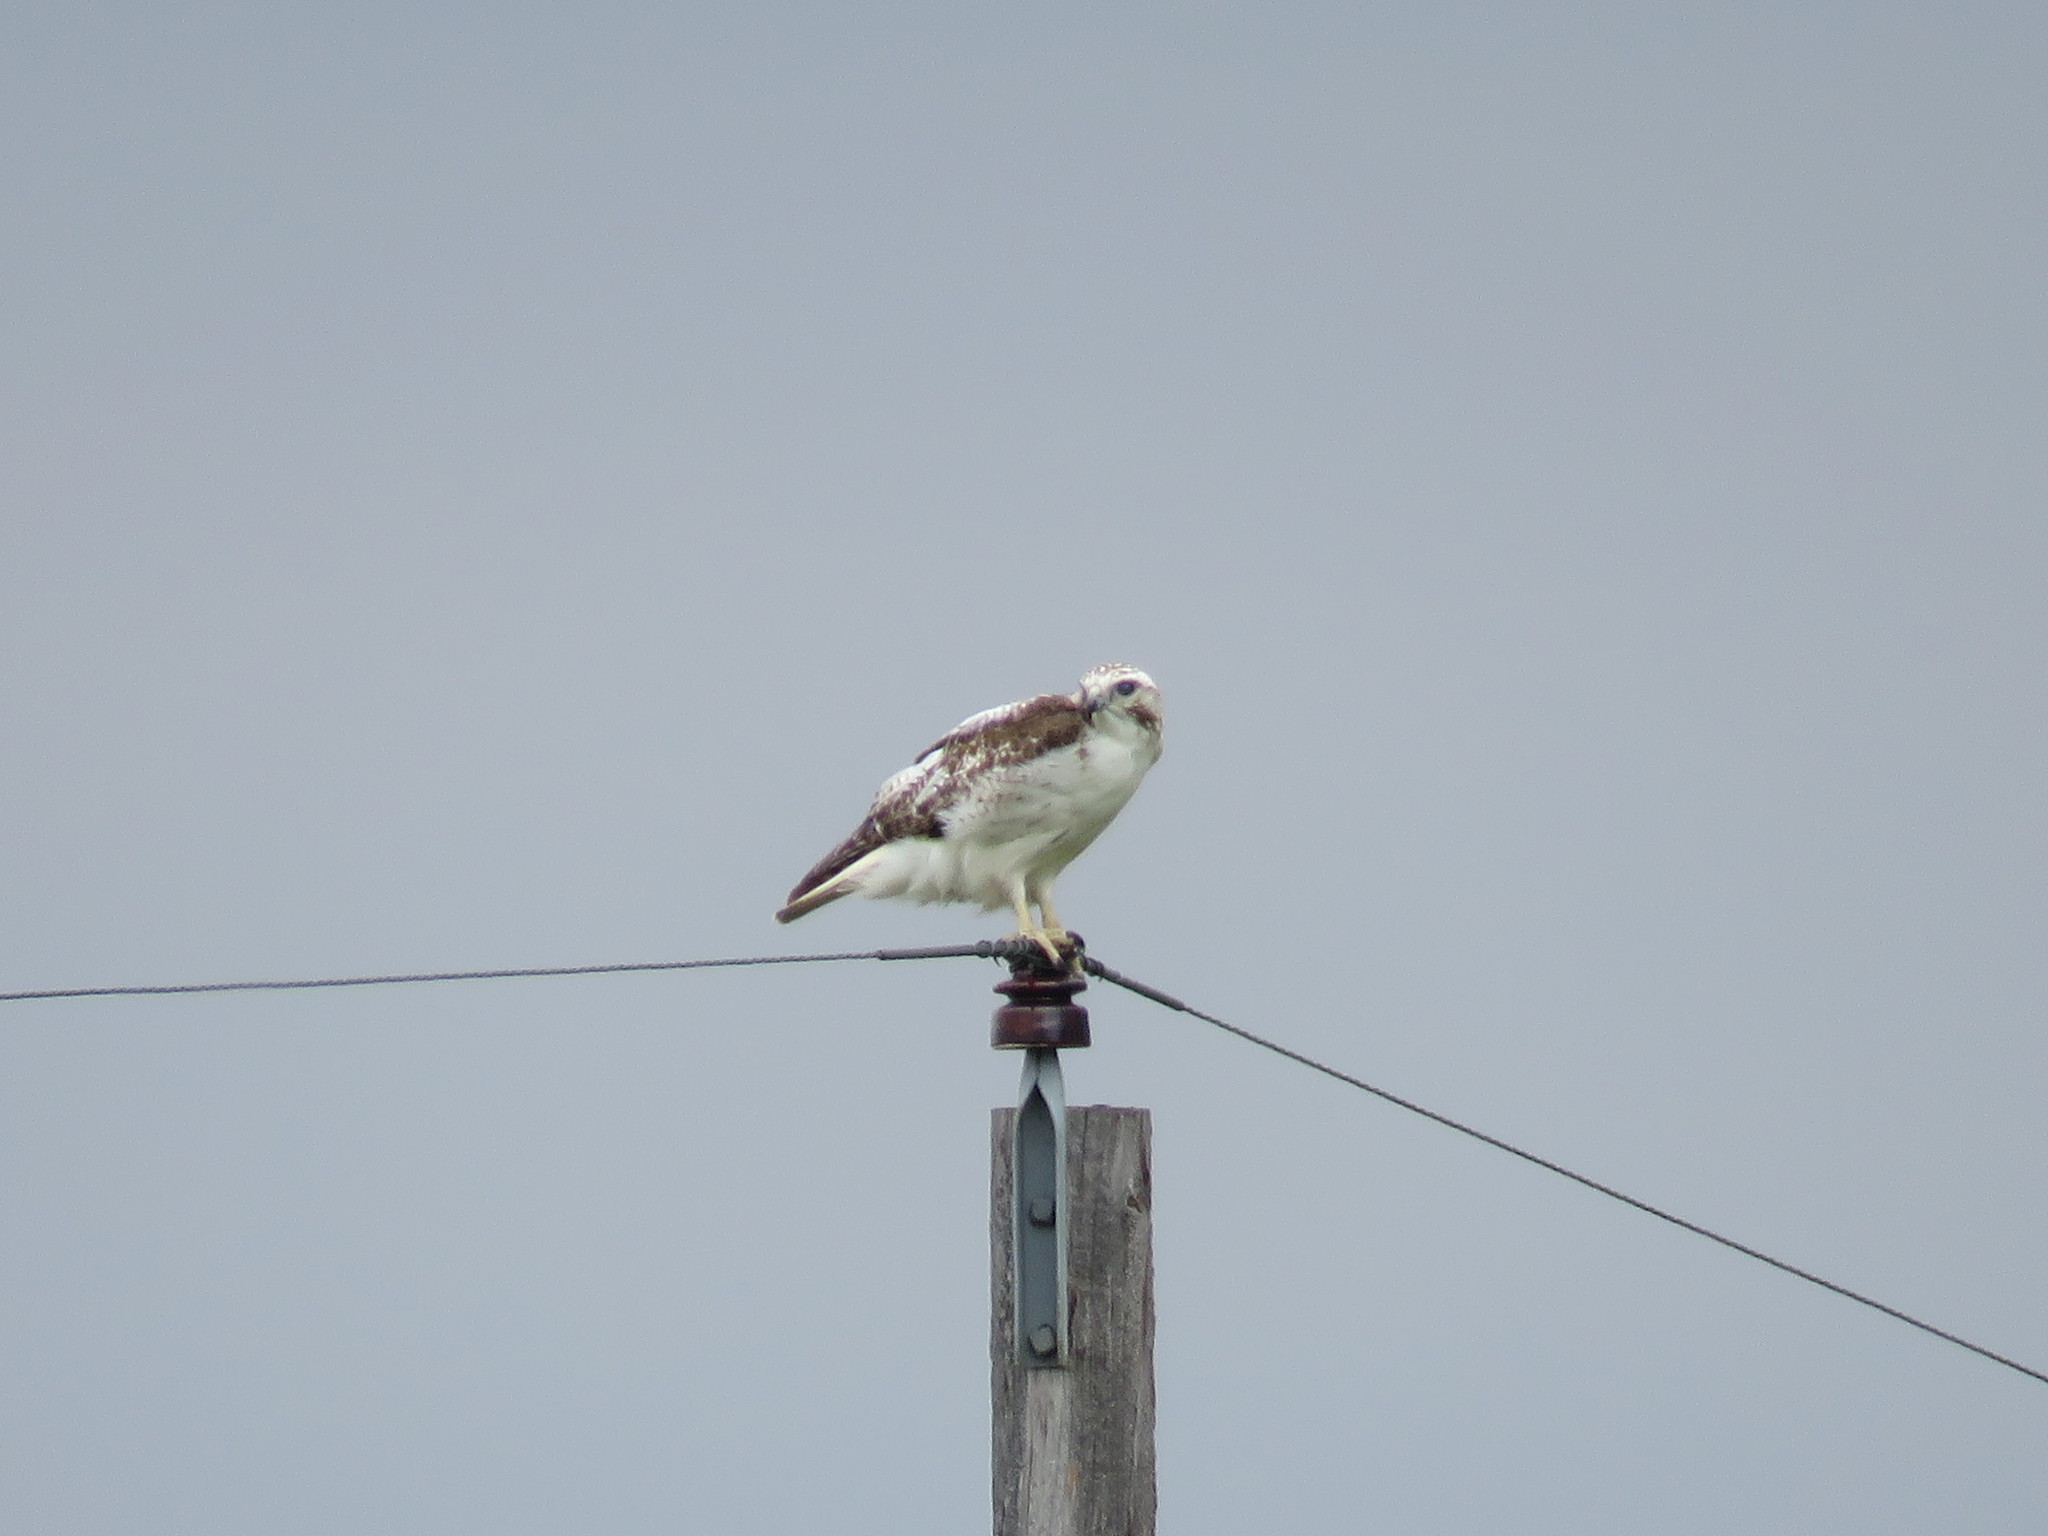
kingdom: Animalia
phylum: Chordata
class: Aves
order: Accipitriformes
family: Accipitridae
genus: Buteo
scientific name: Buteo jamaicensis
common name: Red-tailed hawk
